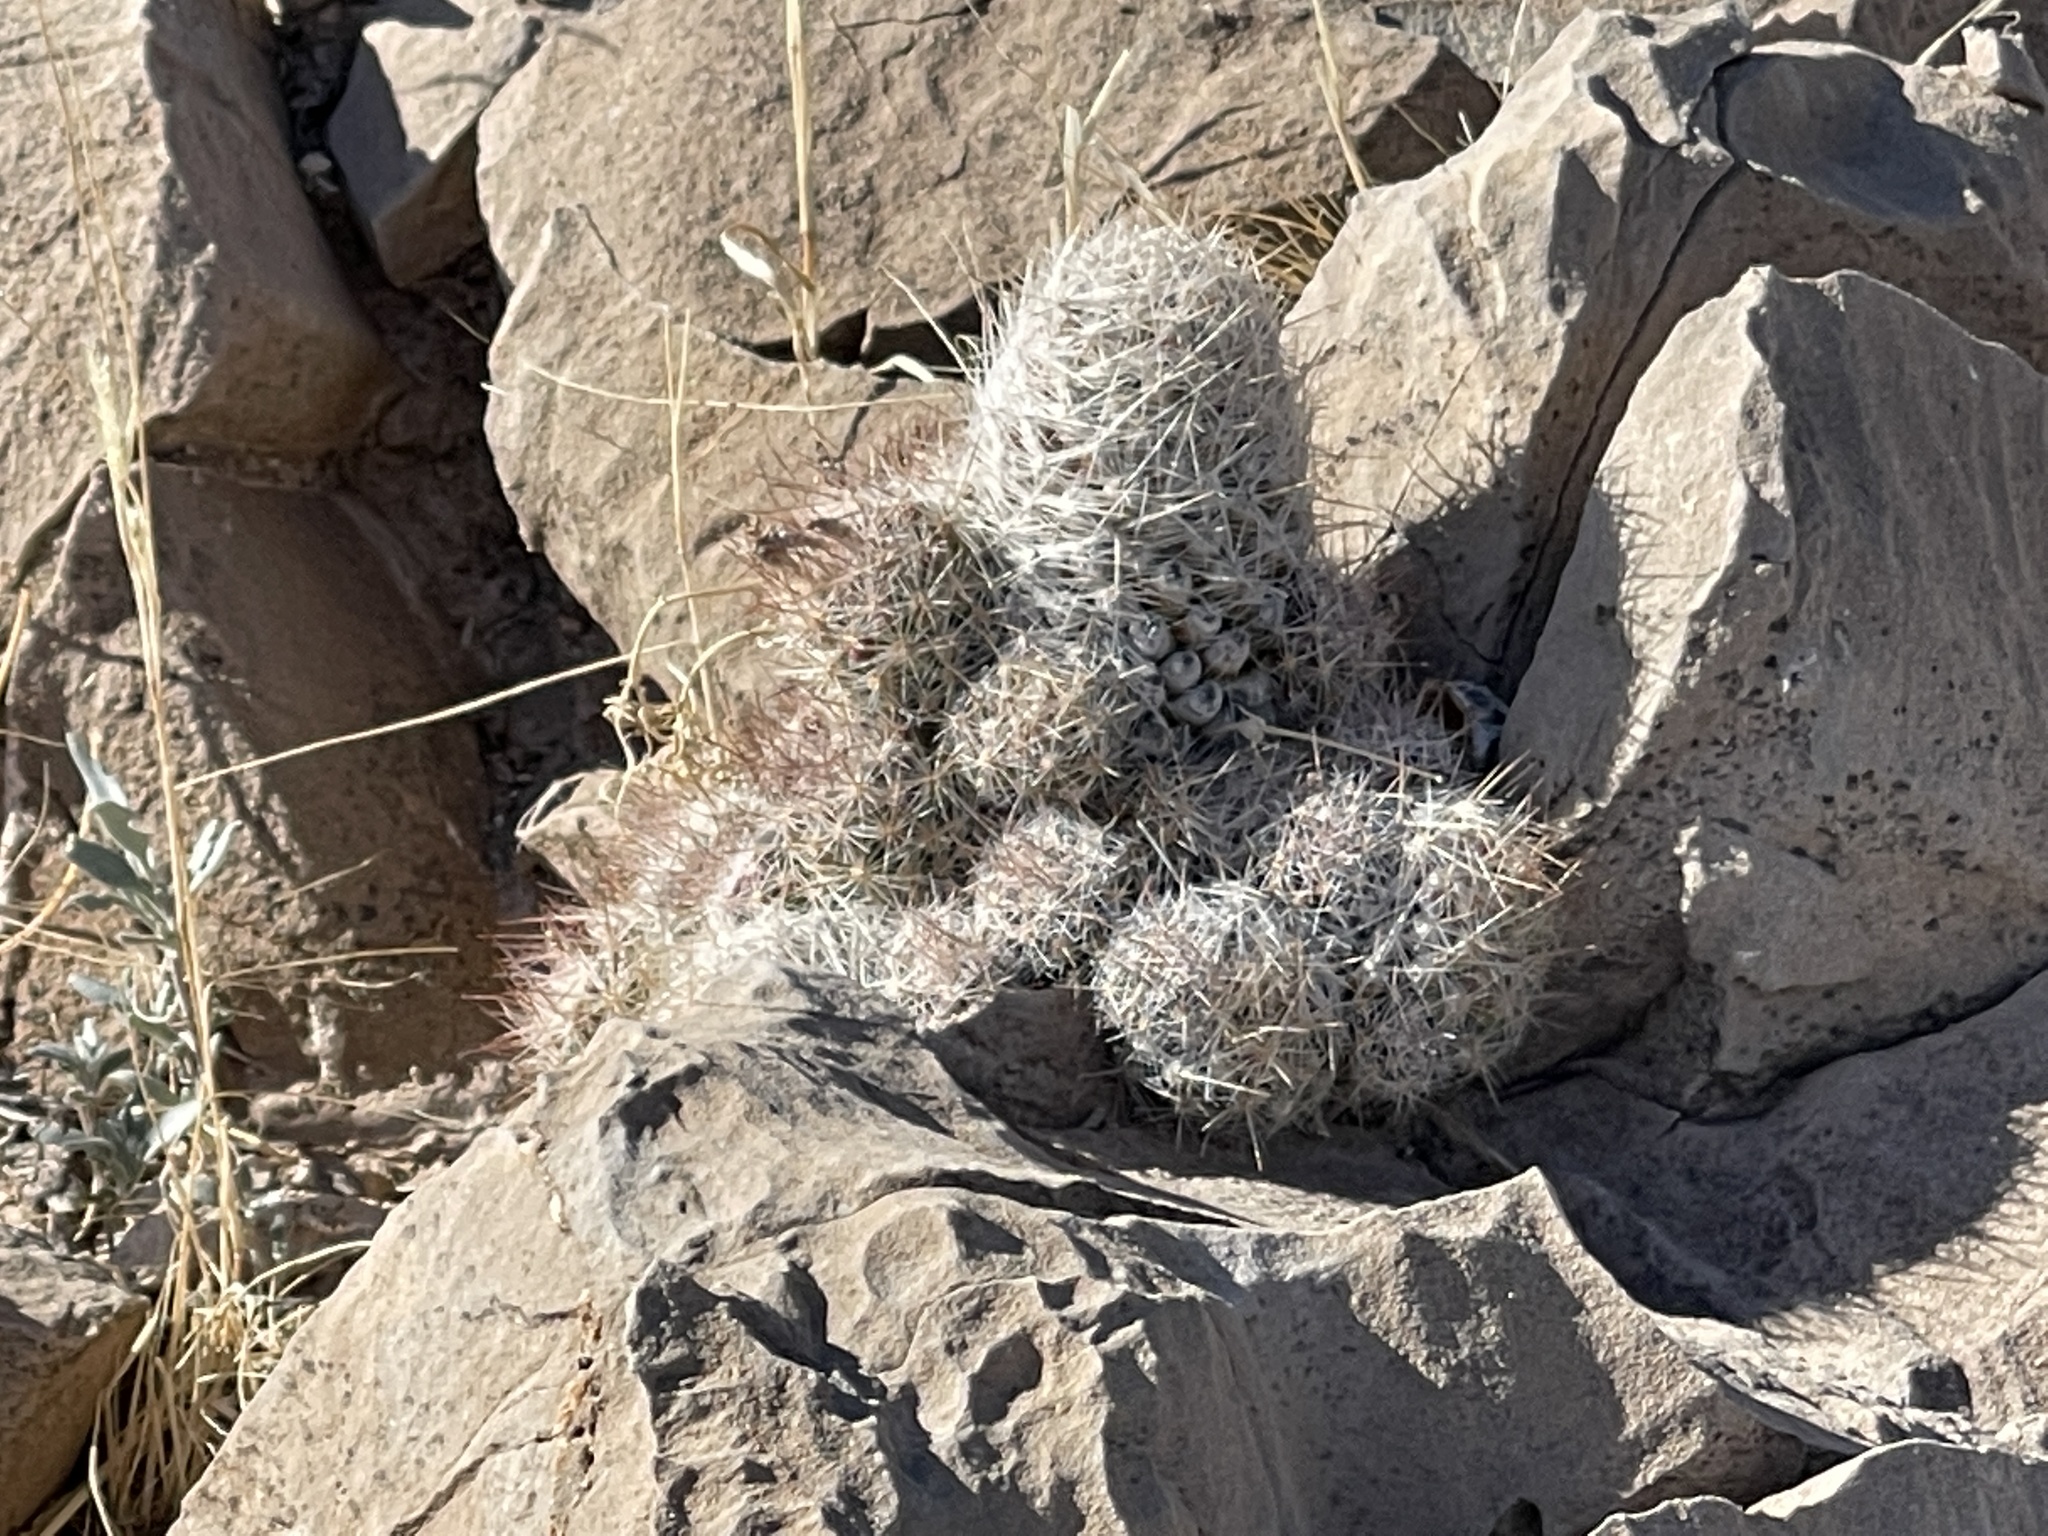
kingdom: Plantae
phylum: Tracheophyta
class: Magnoliopsida
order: Caryophyllales
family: Cactaceae
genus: Pelecyphora
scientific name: Pelecyphora tuberculosa
